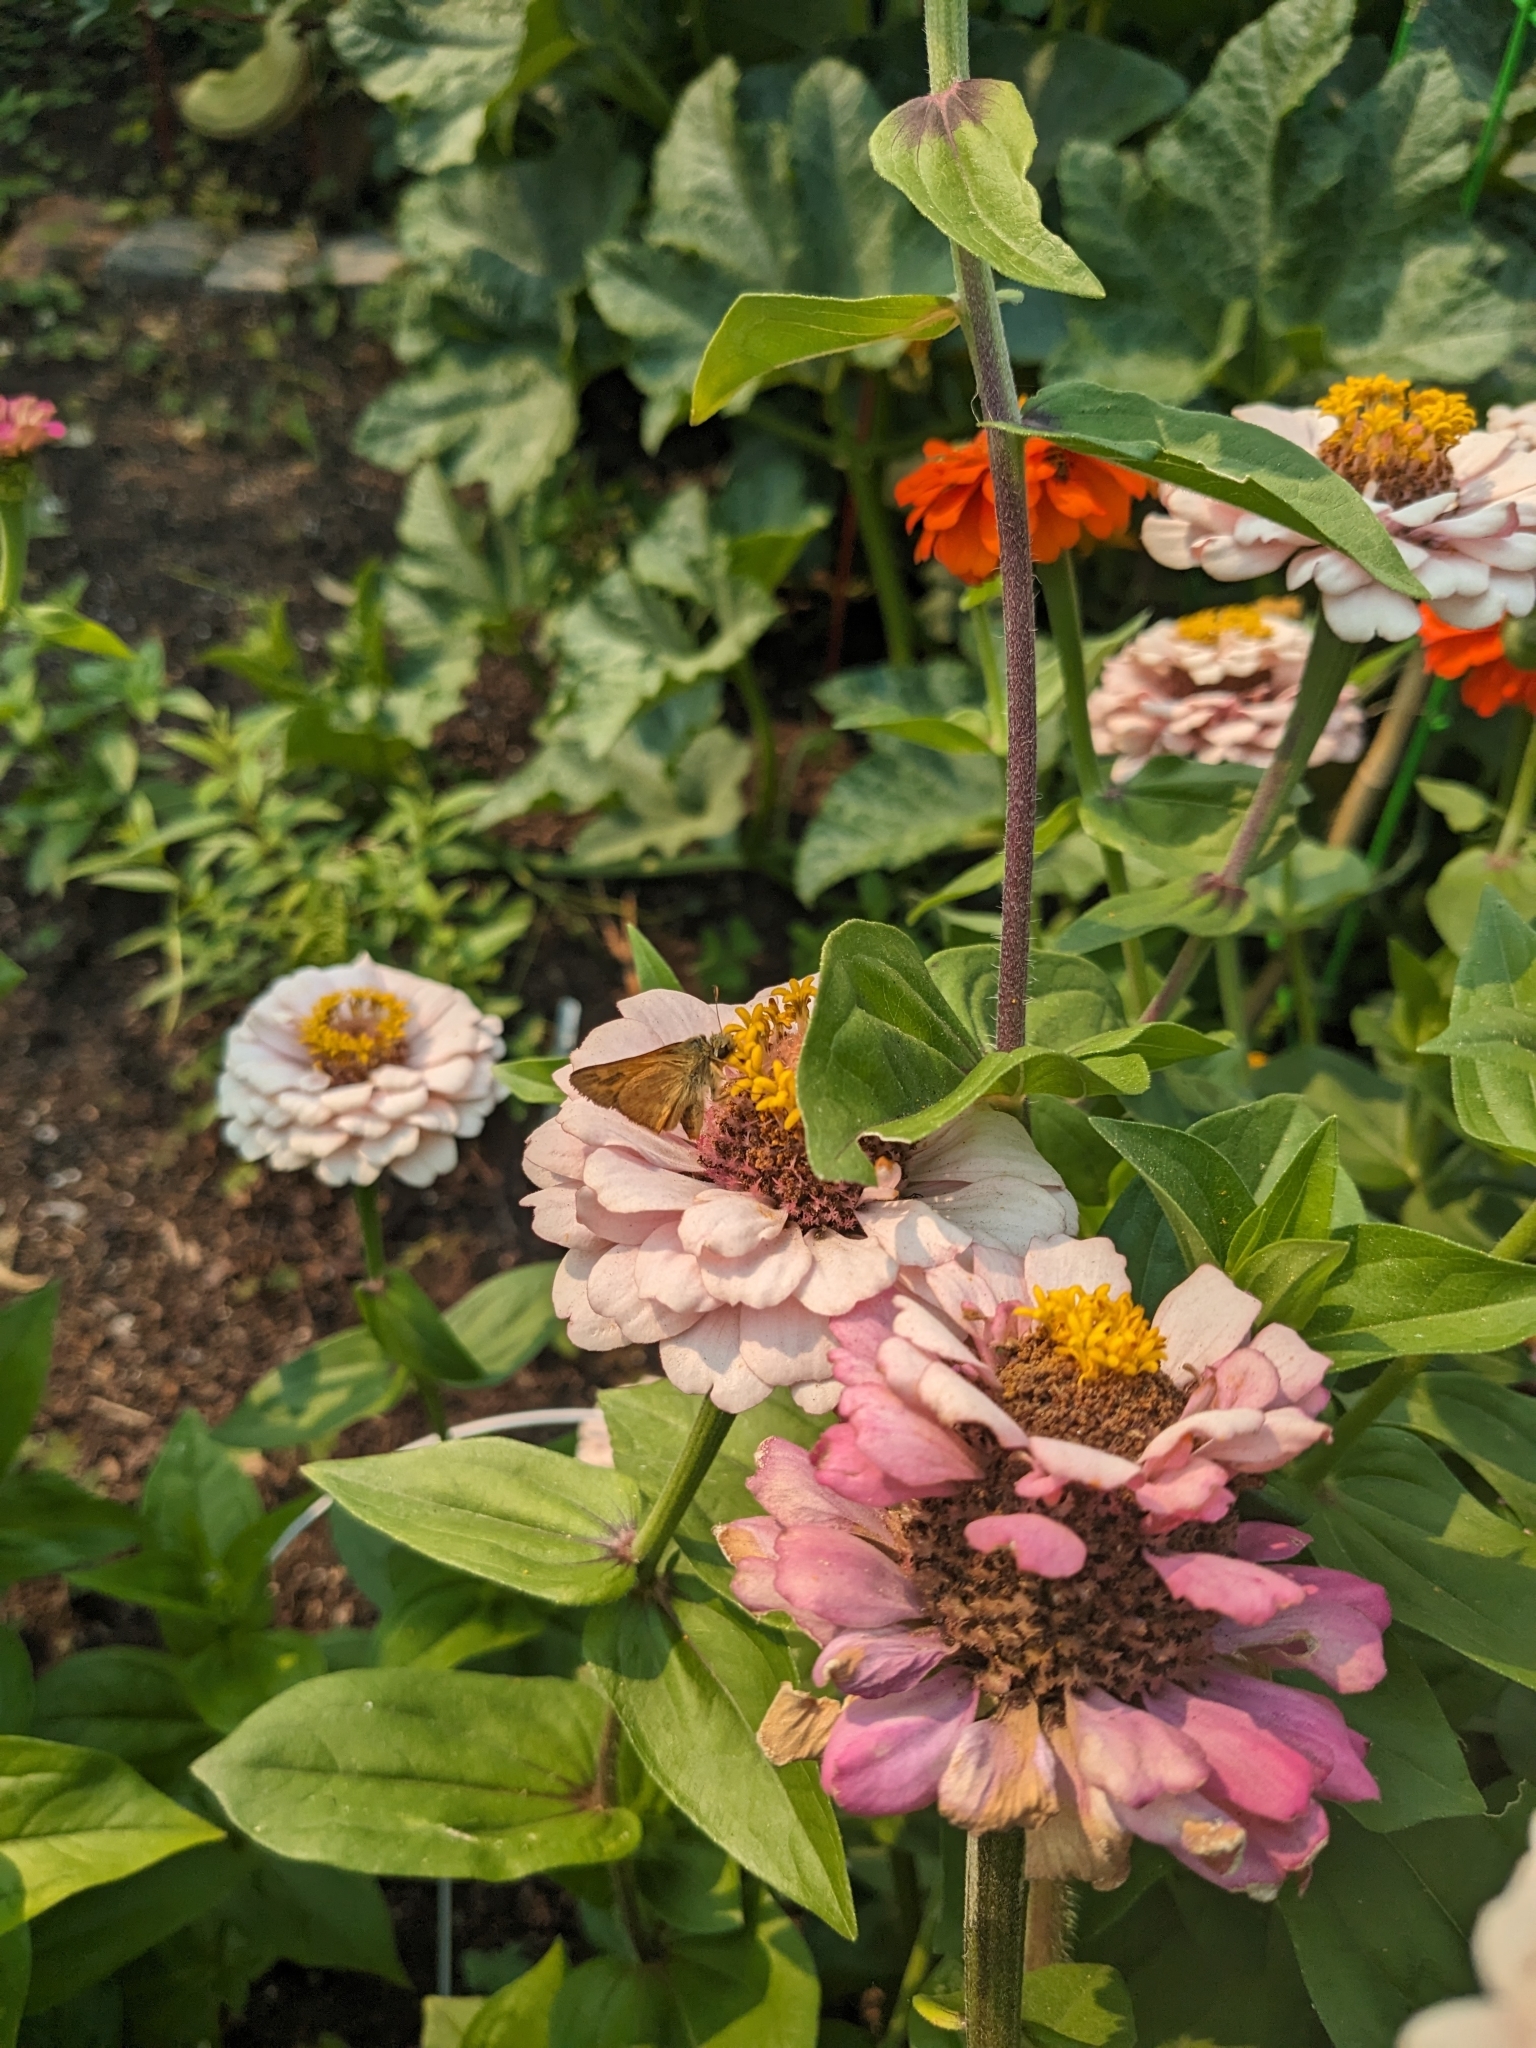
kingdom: Animalia
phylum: Arthropoda
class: Insecta
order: Lepidoptera
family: Hesperiidae
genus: Ochlodes
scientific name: Ochlodes sylvanoides
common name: Woodland skipper
